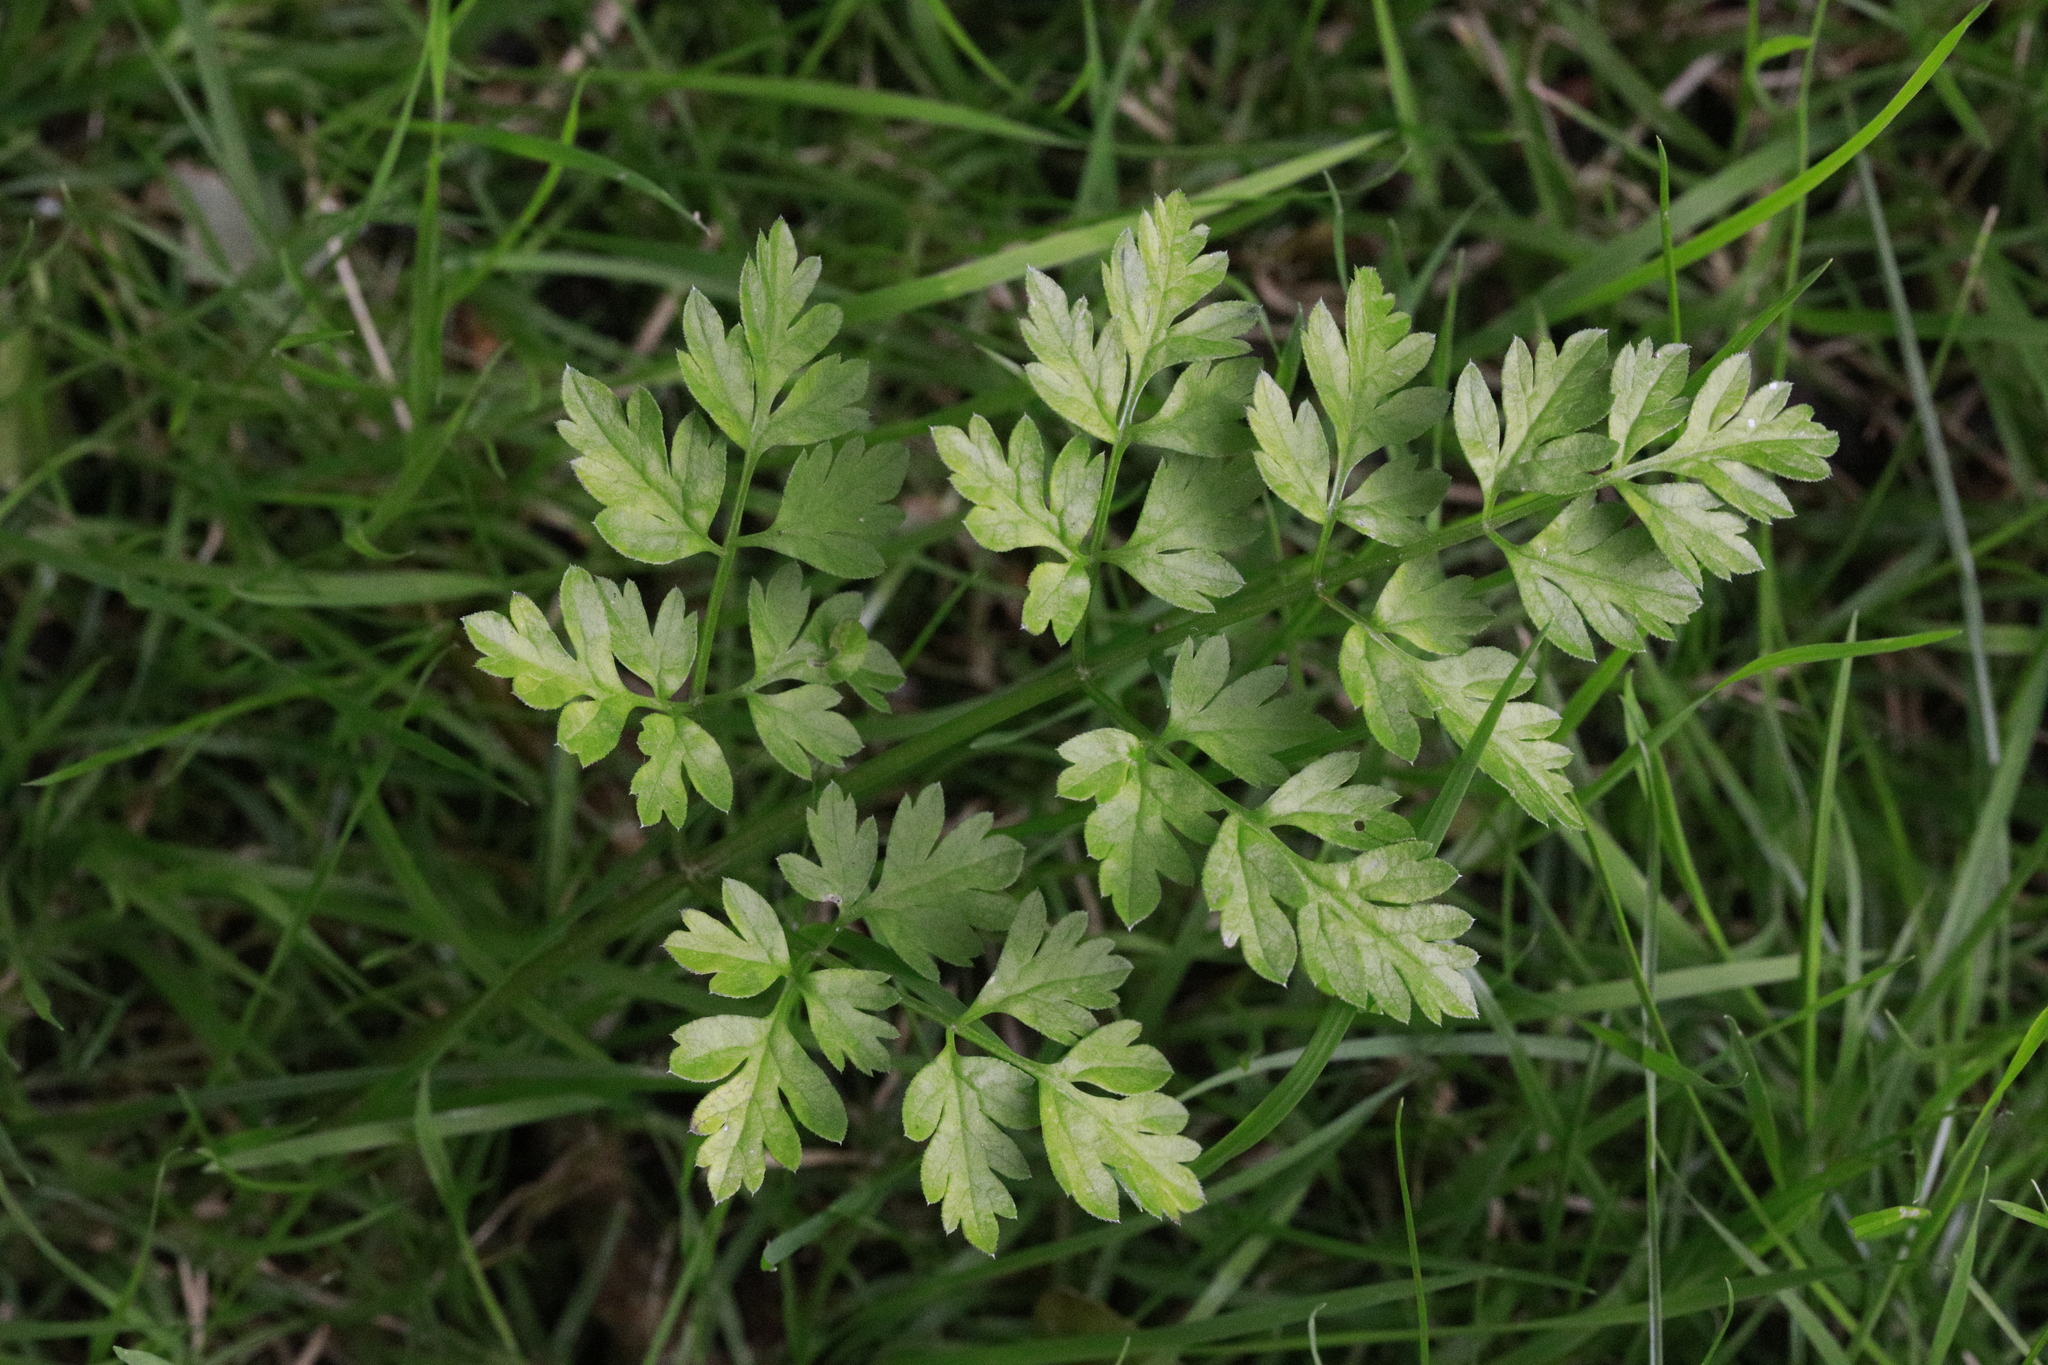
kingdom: Plantae
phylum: Tracheophyta
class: Magnoliopsida
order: Apiales
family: Apiaceae
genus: Anthriscus
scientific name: Anthriscus sylvestris
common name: Cow parsley
